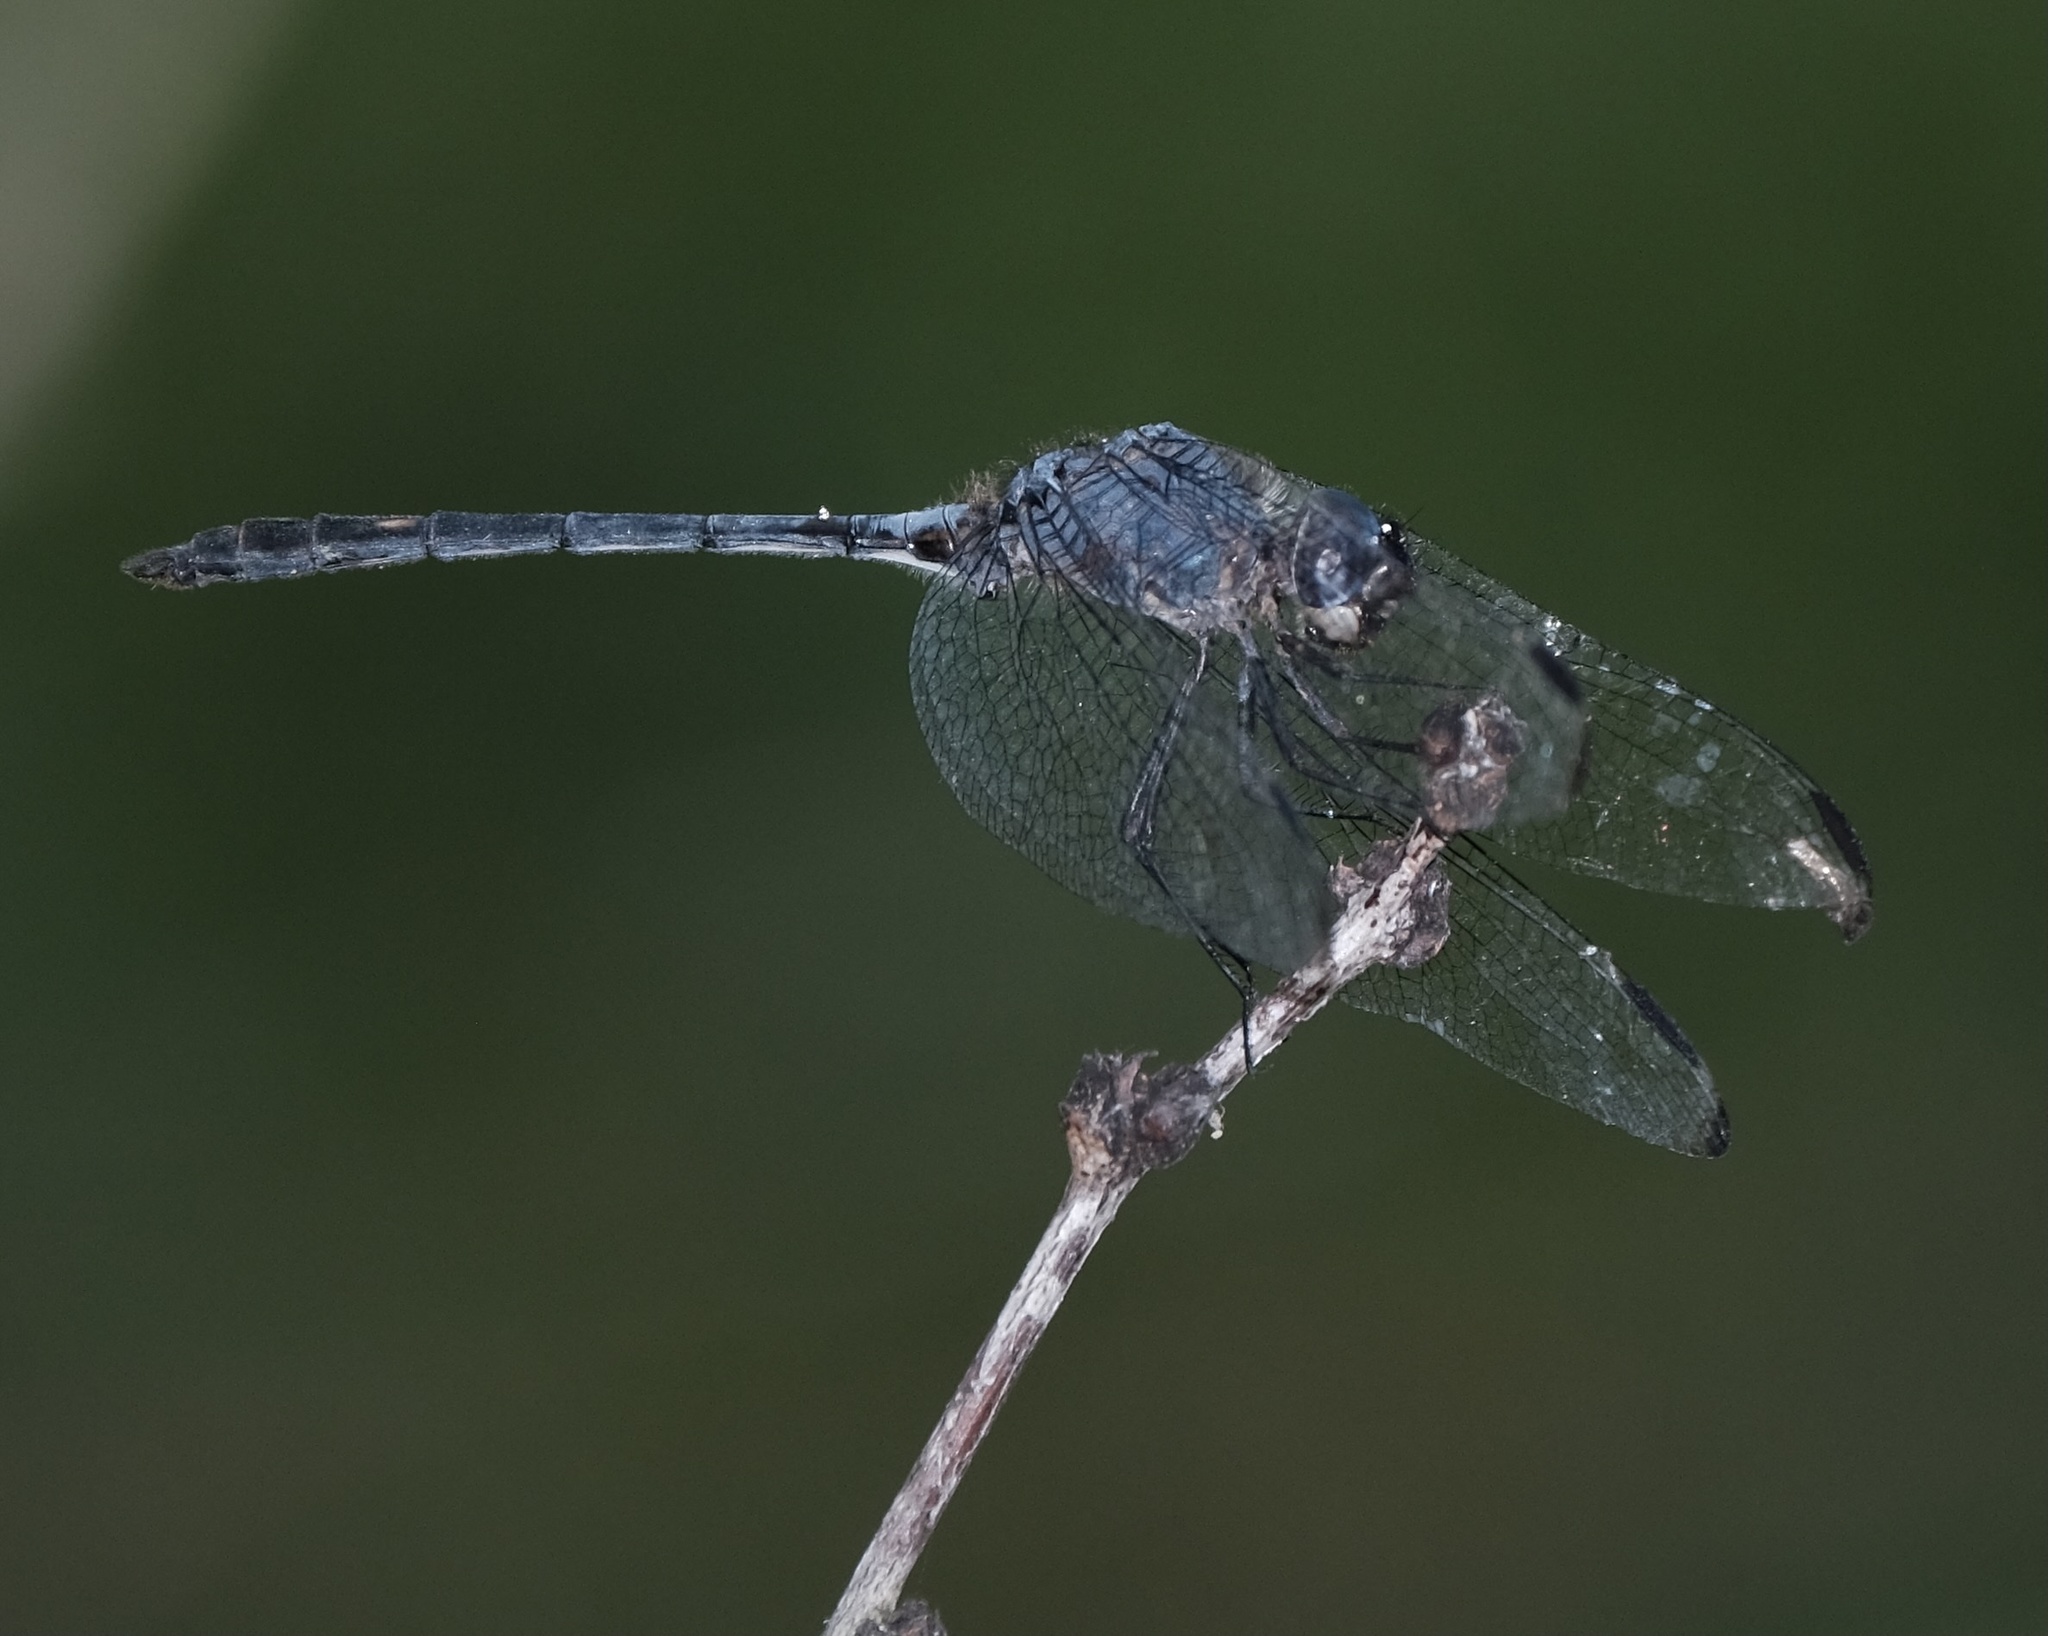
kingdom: Animalia
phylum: Arthropoda
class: Insecta
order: Odonata
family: Libellulidae
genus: Dythemis
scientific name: Dythemis nigrescens
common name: Black setwing
